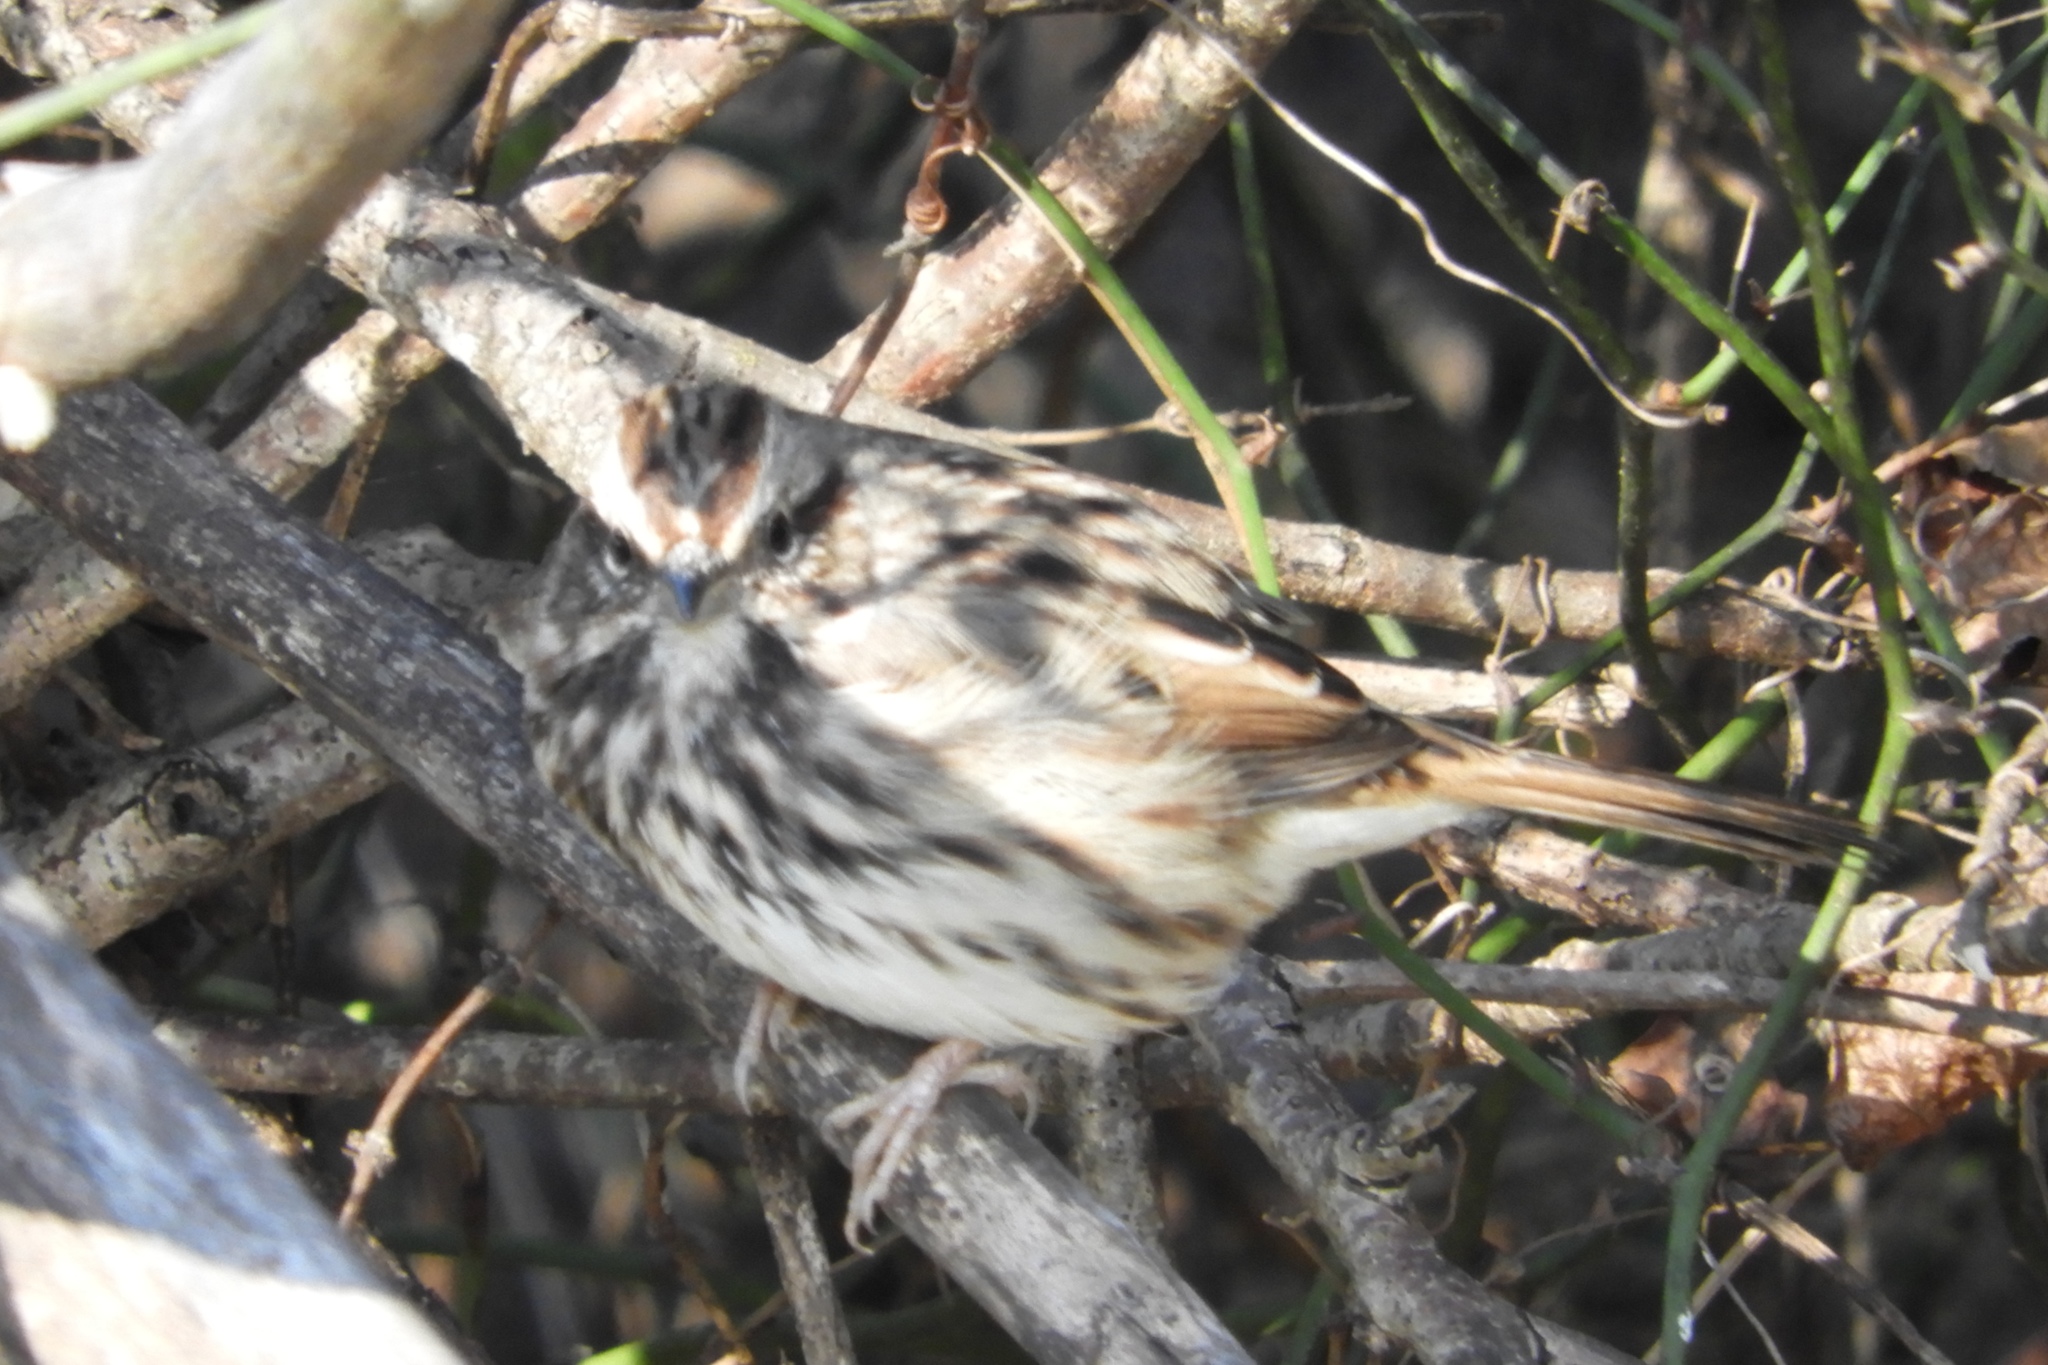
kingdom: Animalia
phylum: Chordata
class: Aves
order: Passeriformes
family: Passerellidae
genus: Melospiza
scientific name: Melospiza melodia
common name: Song sparrow
